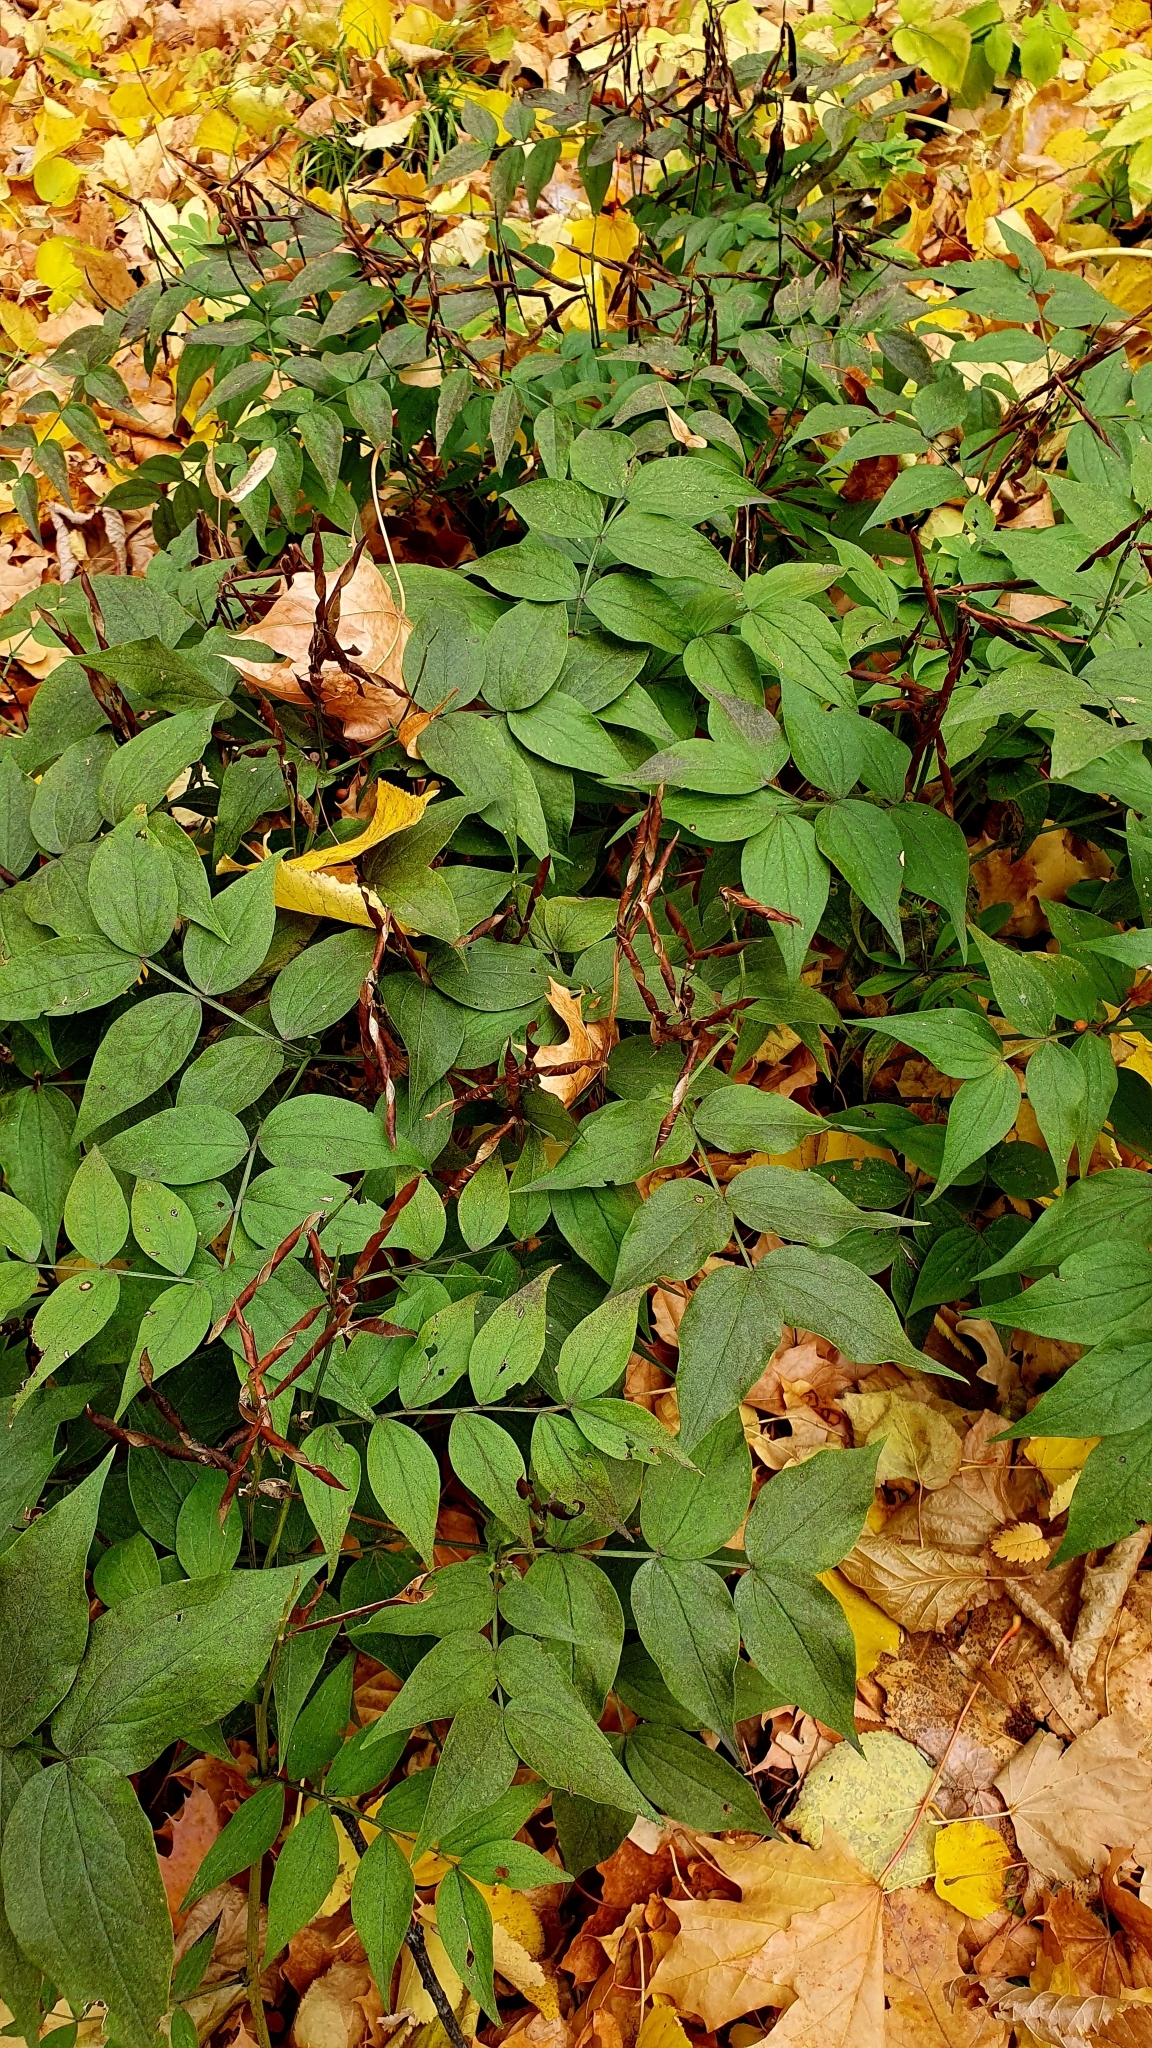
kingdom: Plantae
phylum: Tracheophyta
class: Magnoliopsida
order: Fabales
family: Fabaceae
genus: Lathyrus
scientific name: Lathyrus vernus
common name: Spring pea
